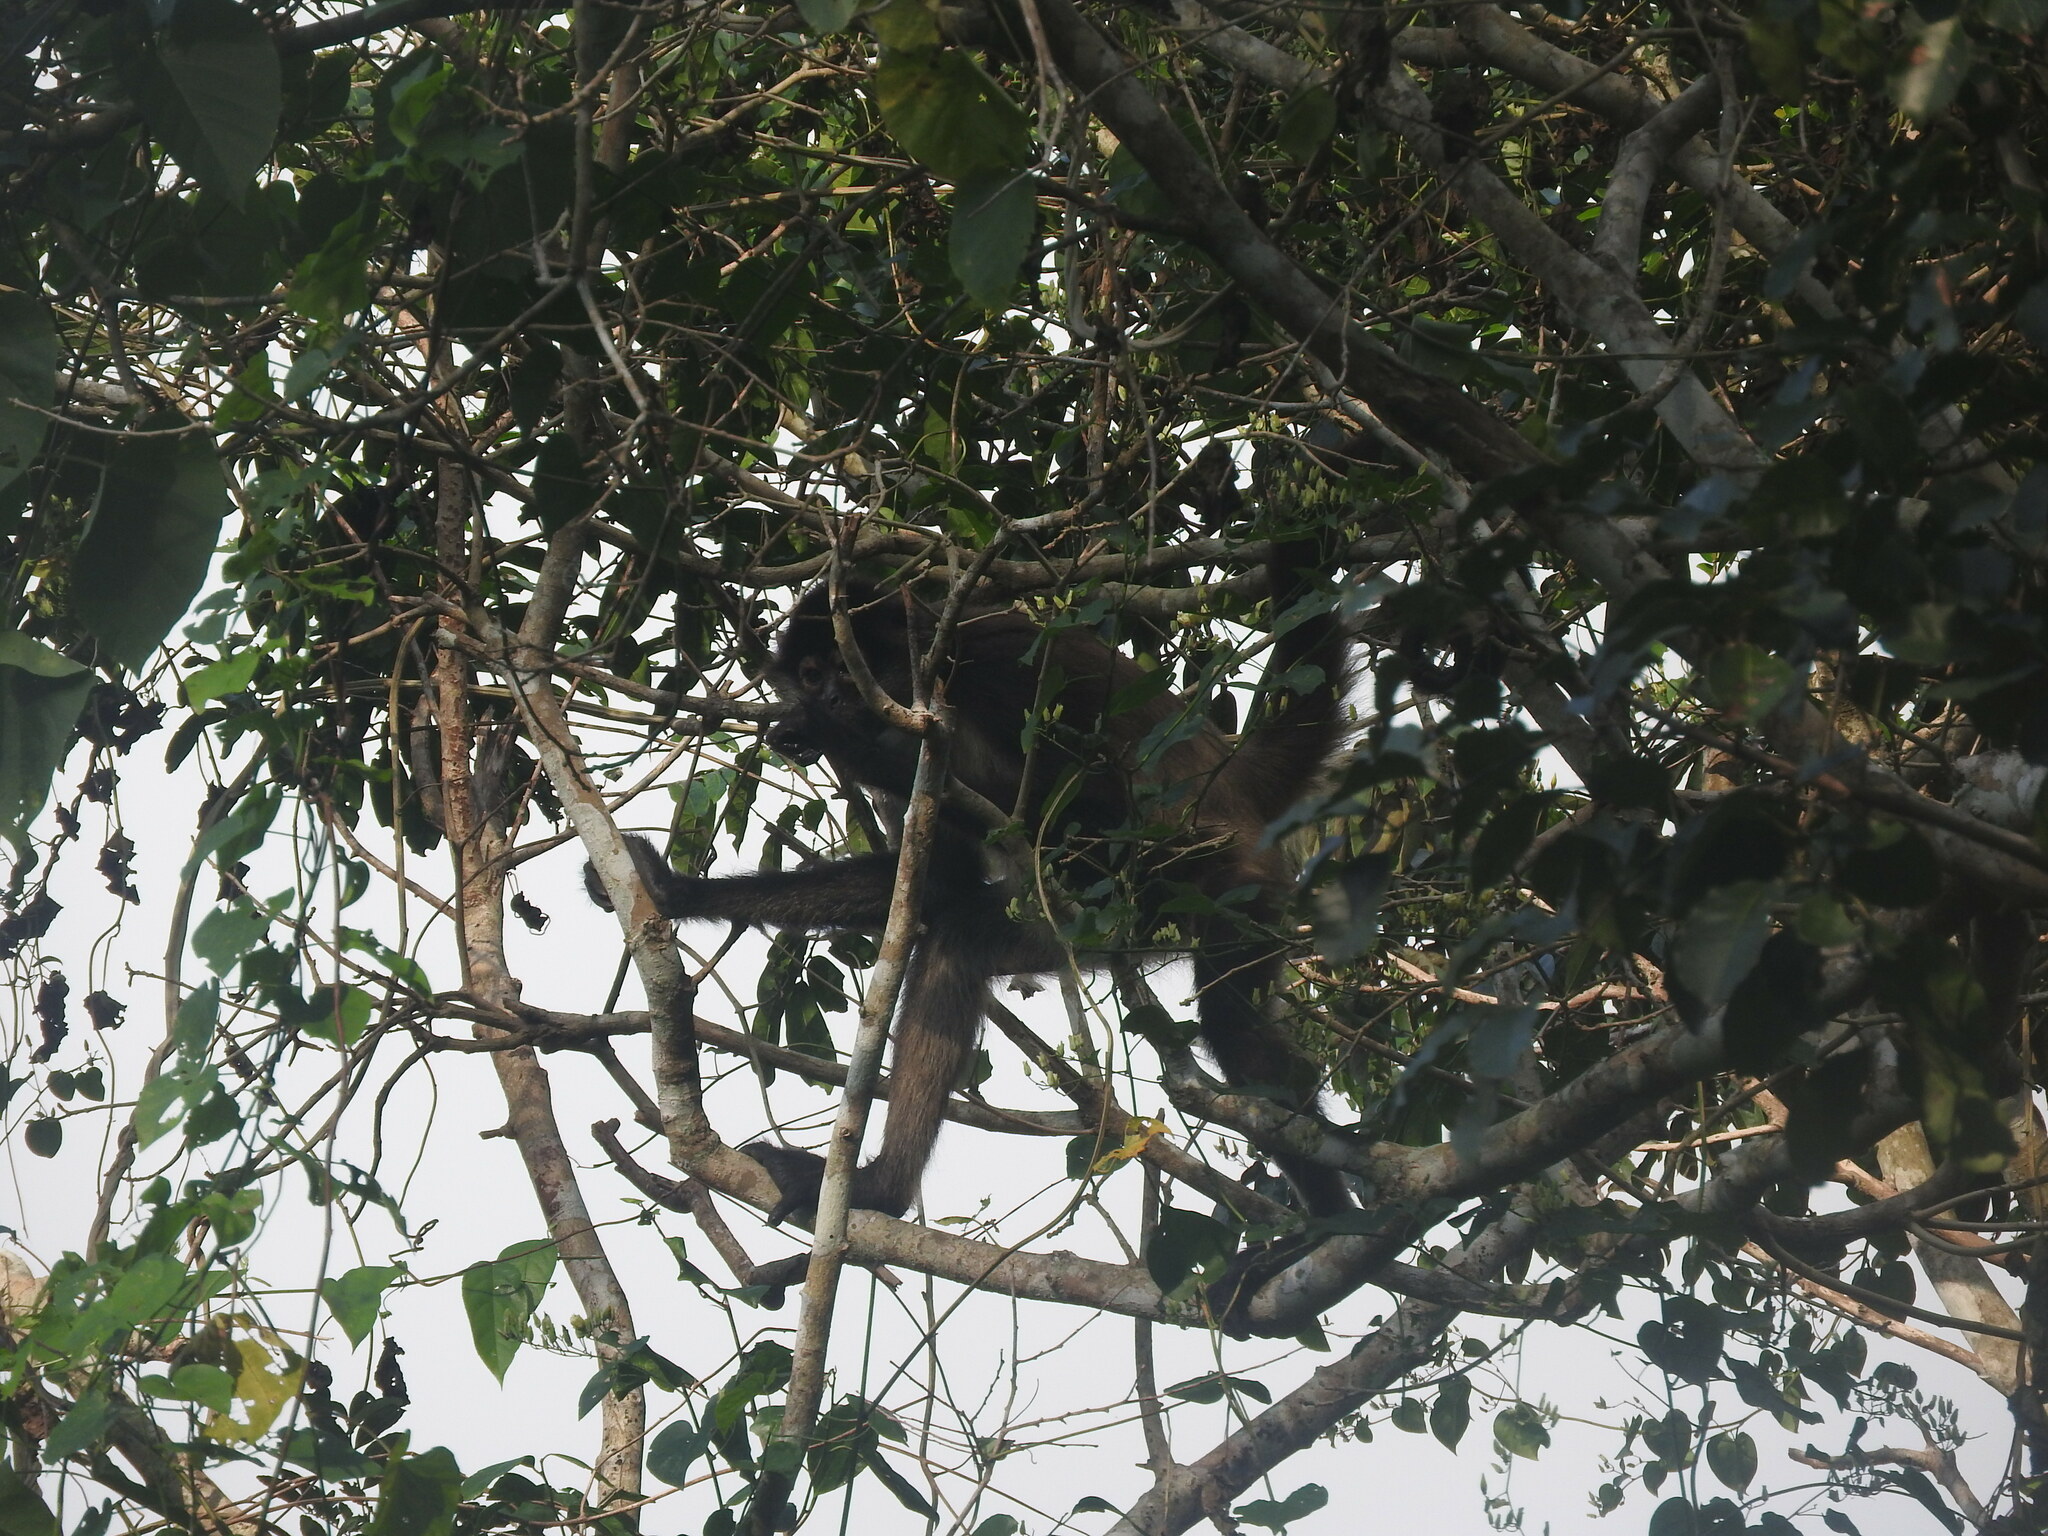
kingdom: Animalia
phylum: Chordata
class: Mammalia
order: Primates
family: Atelidae
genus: Ateles
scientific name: Ateles geoffroyi
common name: Black-handed spider monkey
